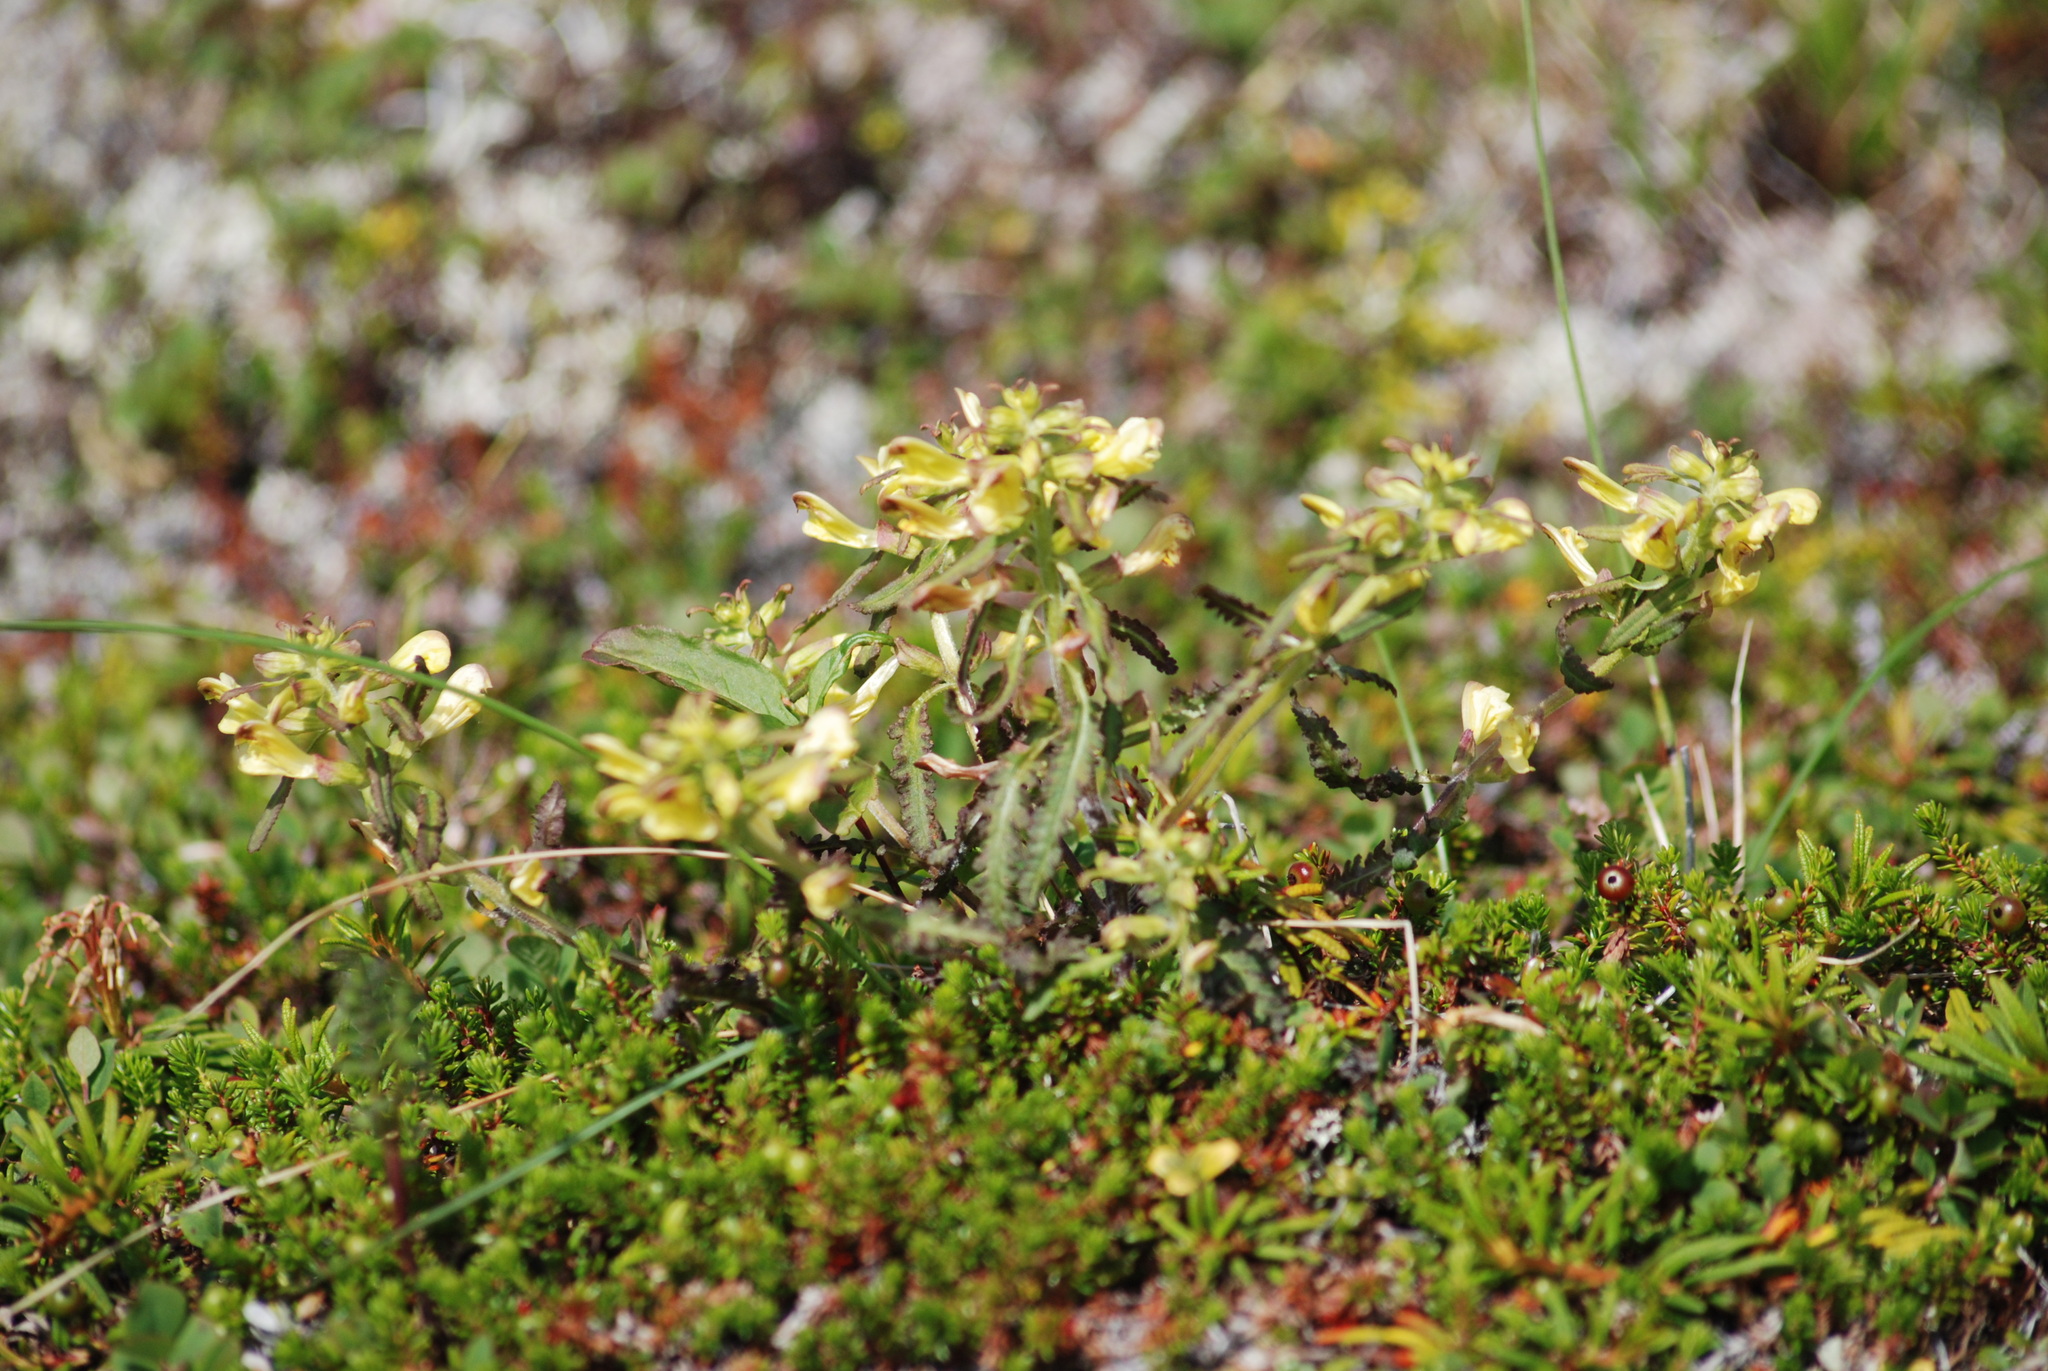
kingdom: Plantae
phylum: Tracheophyta
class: Magnoliopsida
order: Lamiales
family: Orobanchaceae
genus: Pedicularis
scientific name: Pedicularis labradorica
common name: Labrador lousewort
